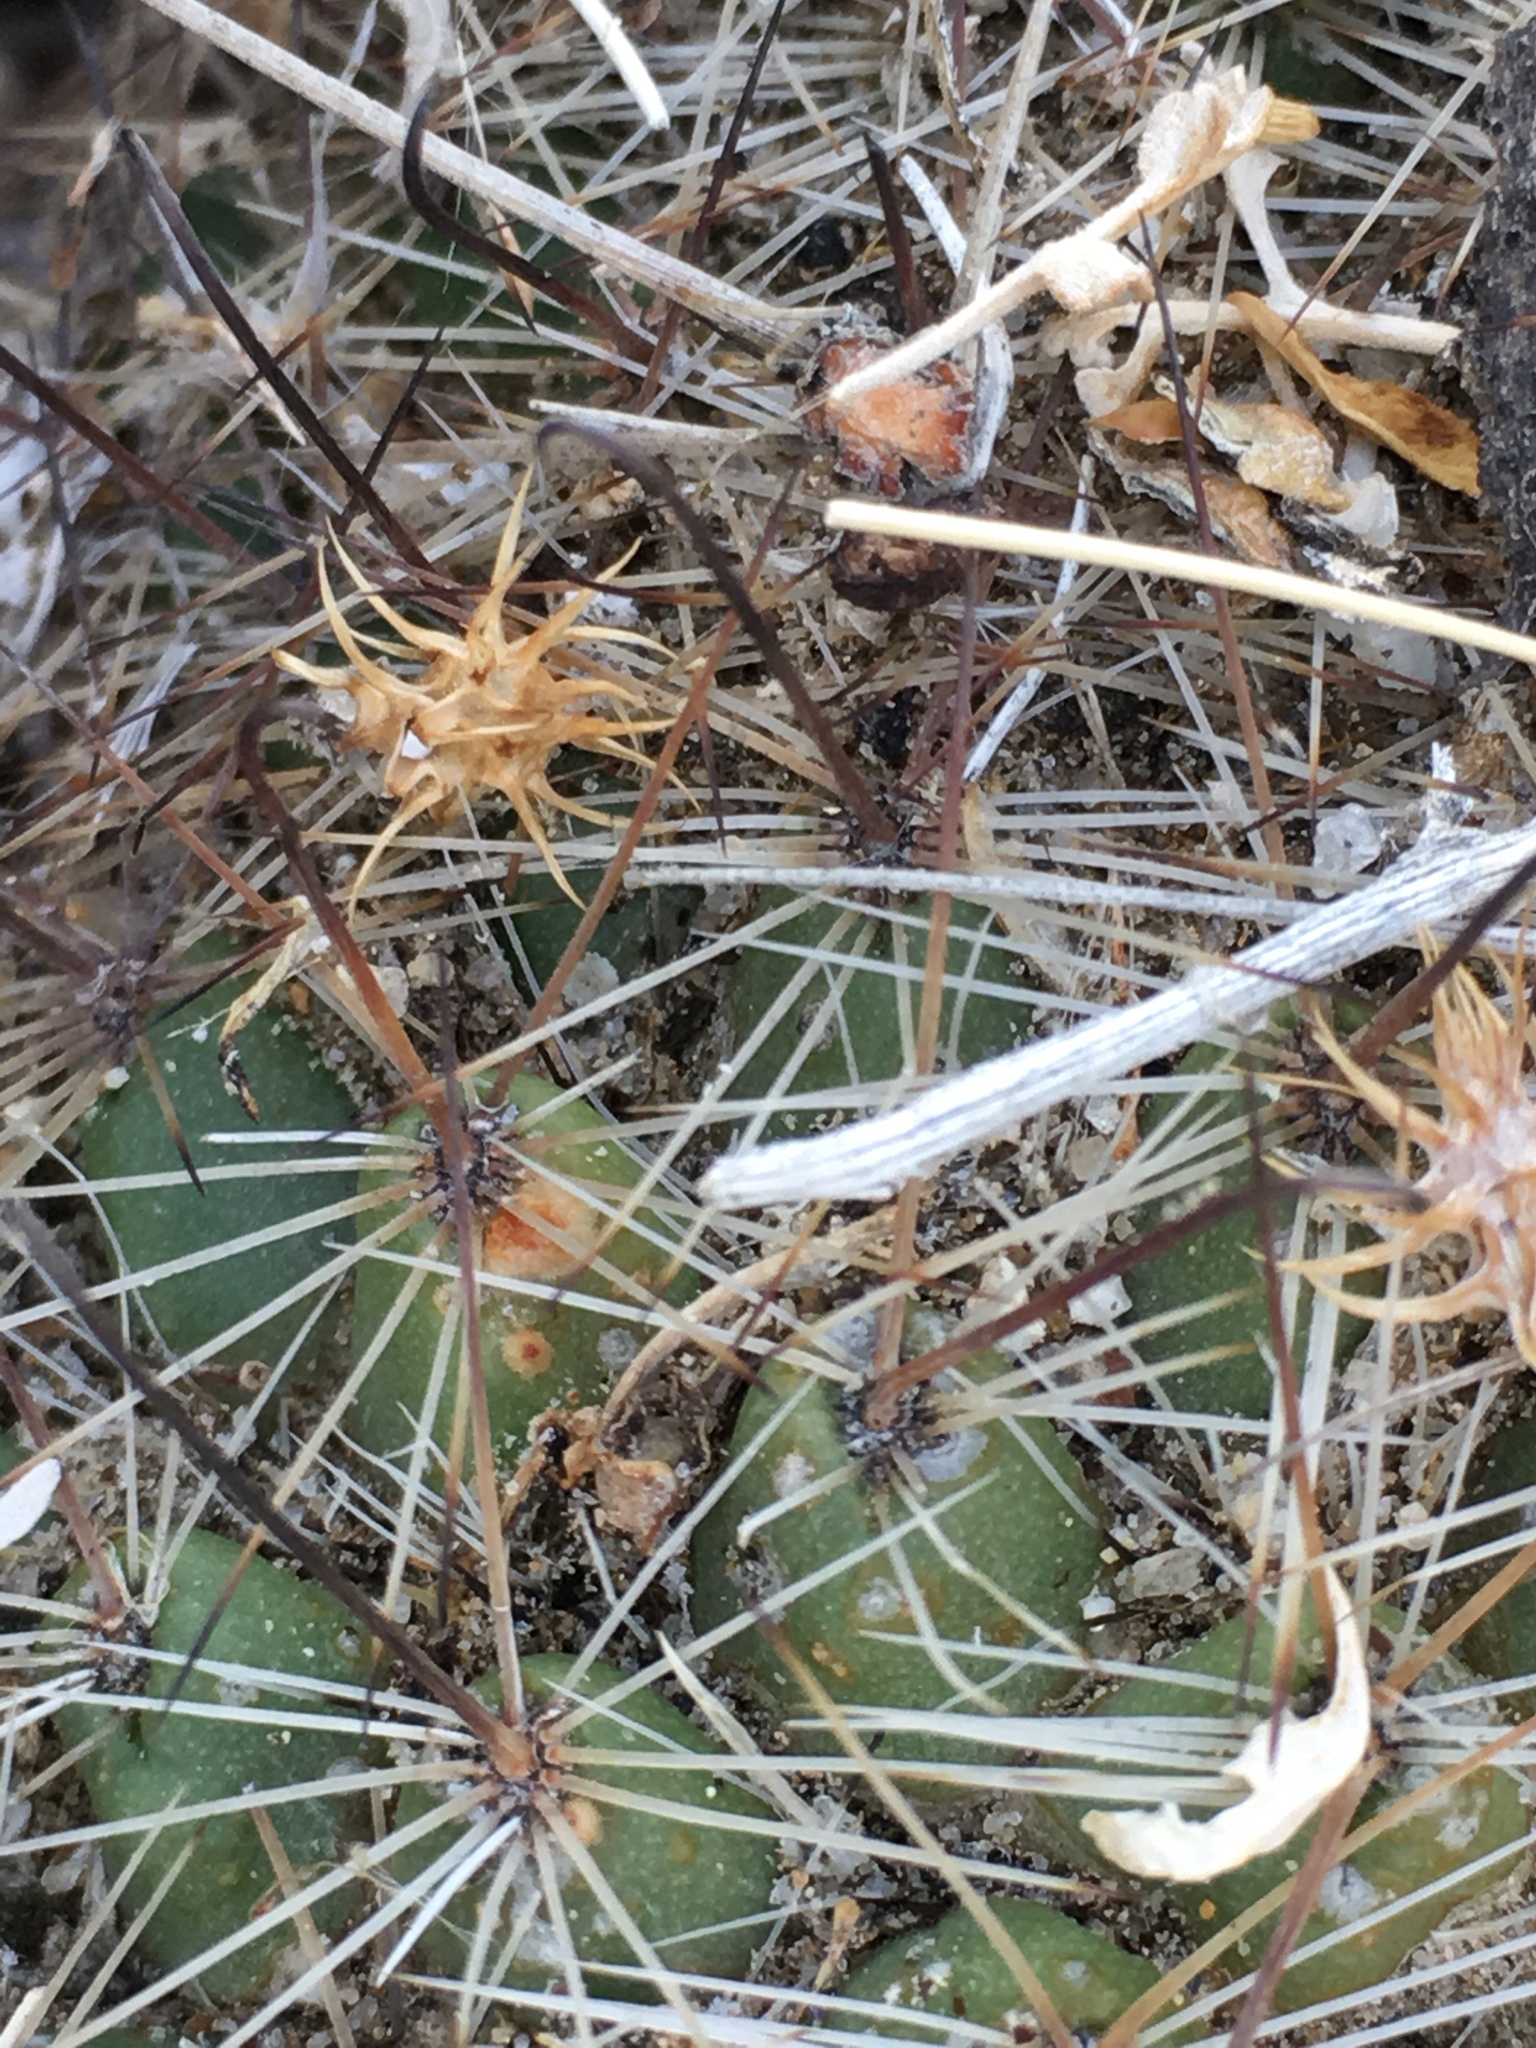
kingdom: Plantae
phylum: Tracheophyta
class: Magnoliopsida
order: Caryophyllales
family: Cactaceae
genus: Cochemiea
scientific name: Cochemiea dioica
